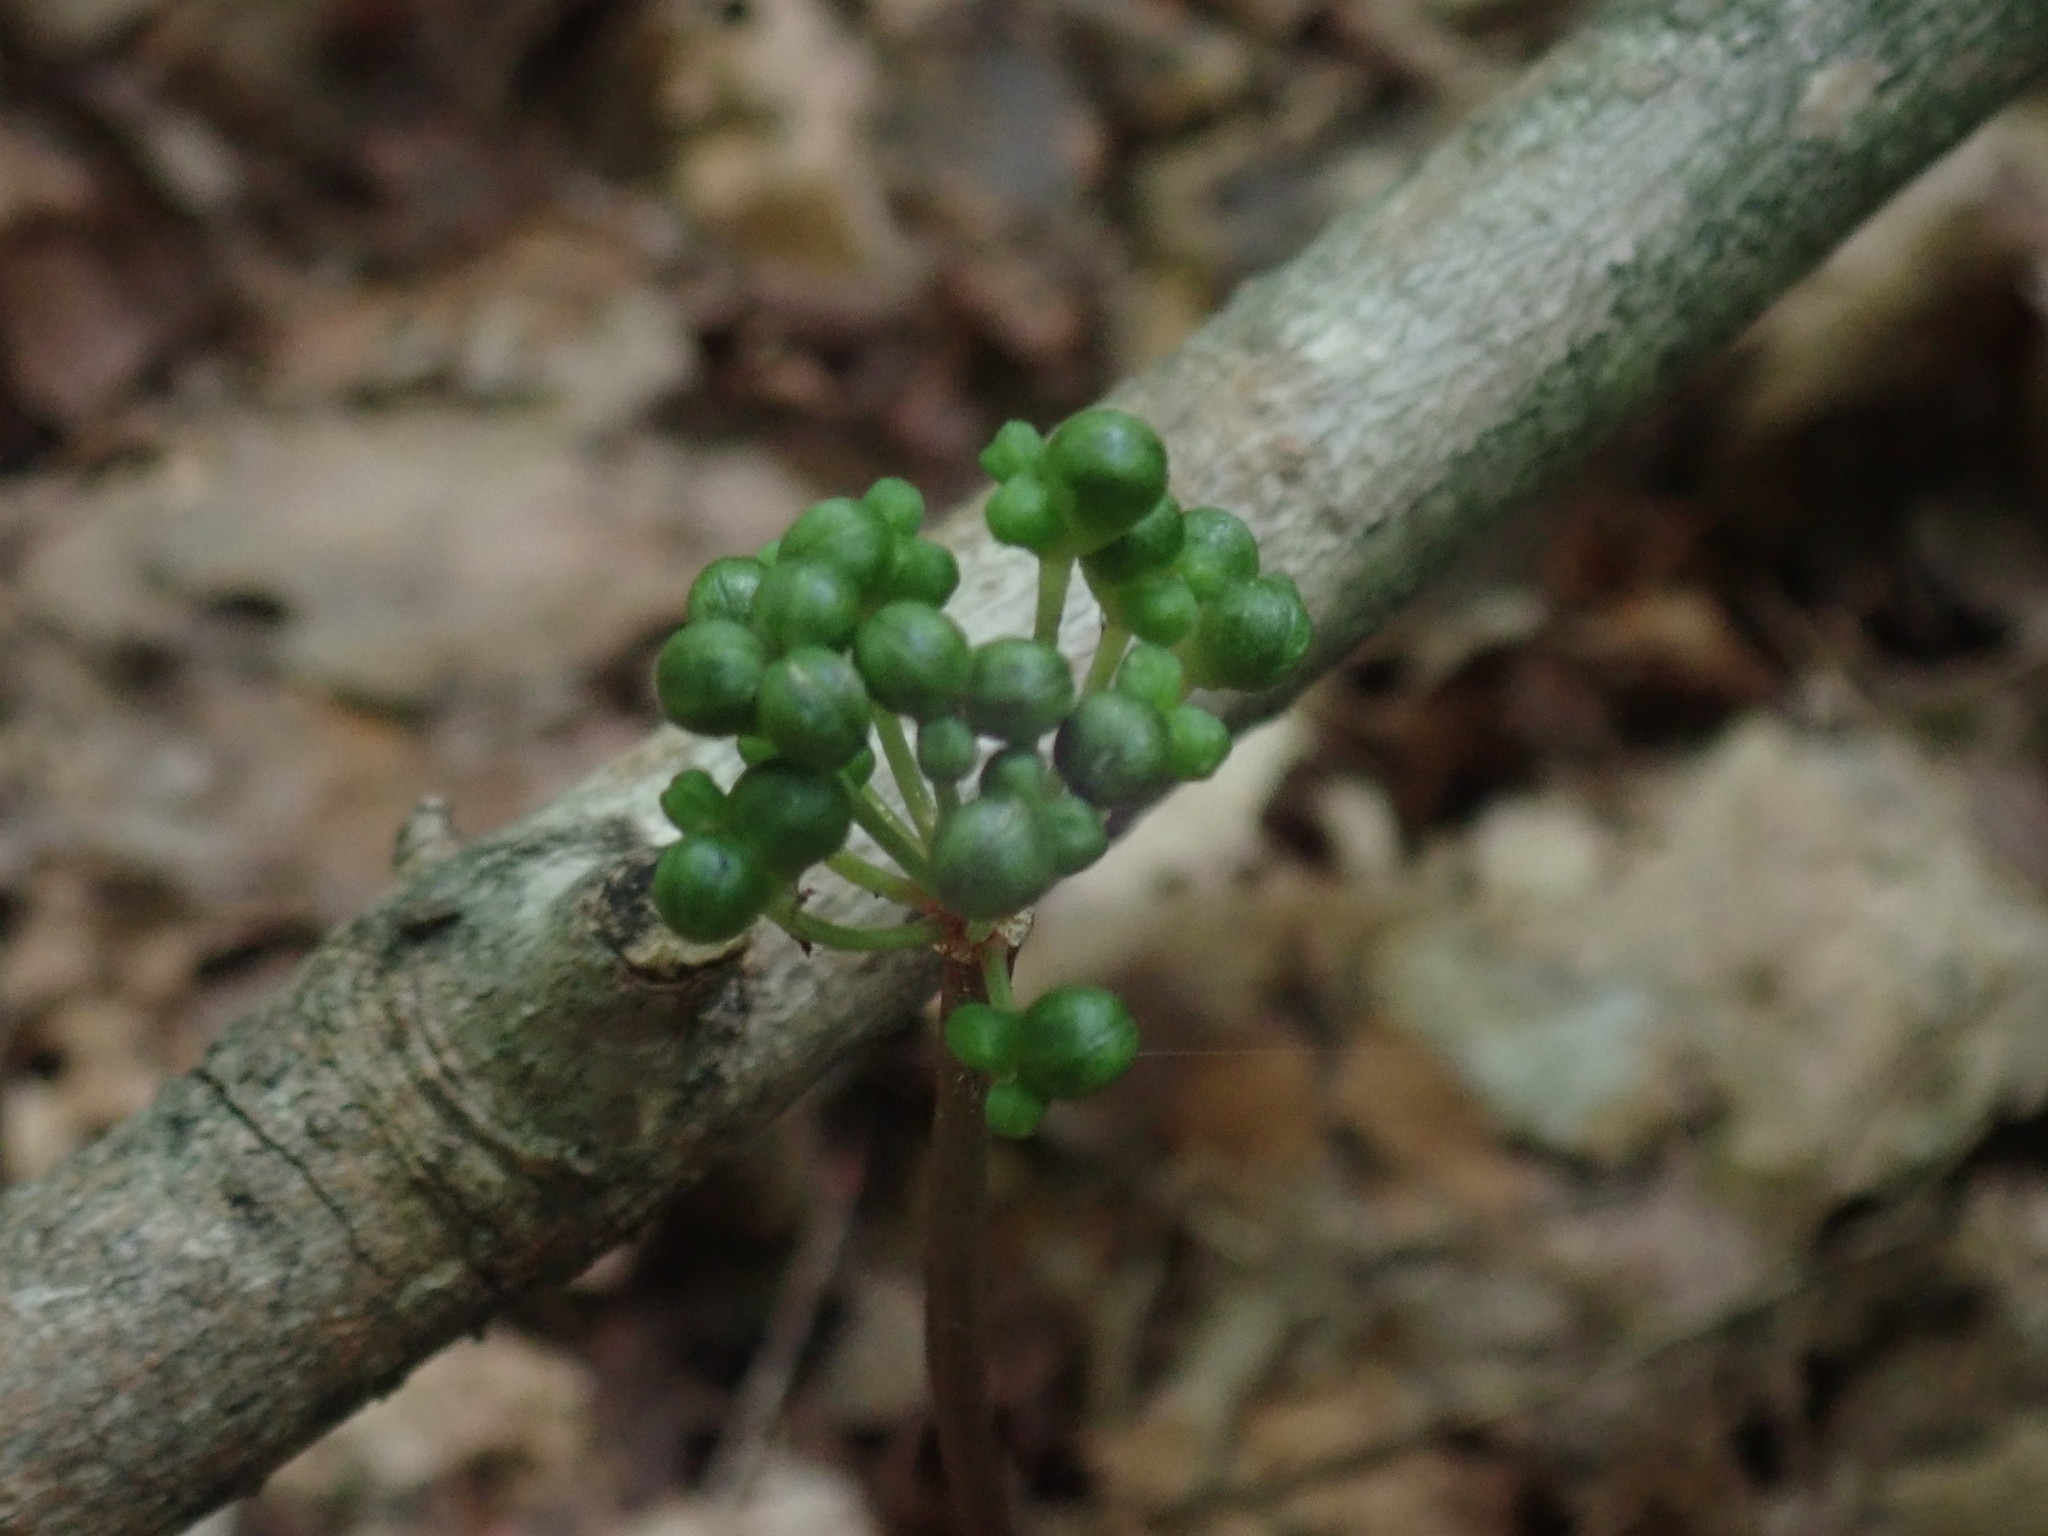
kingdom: Plantae
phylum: Tracheophyta
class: Liliopsida
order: Asparagales
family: Amaryllidaceae
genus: Allium
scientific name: Allium tricoccum
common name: Ramp
